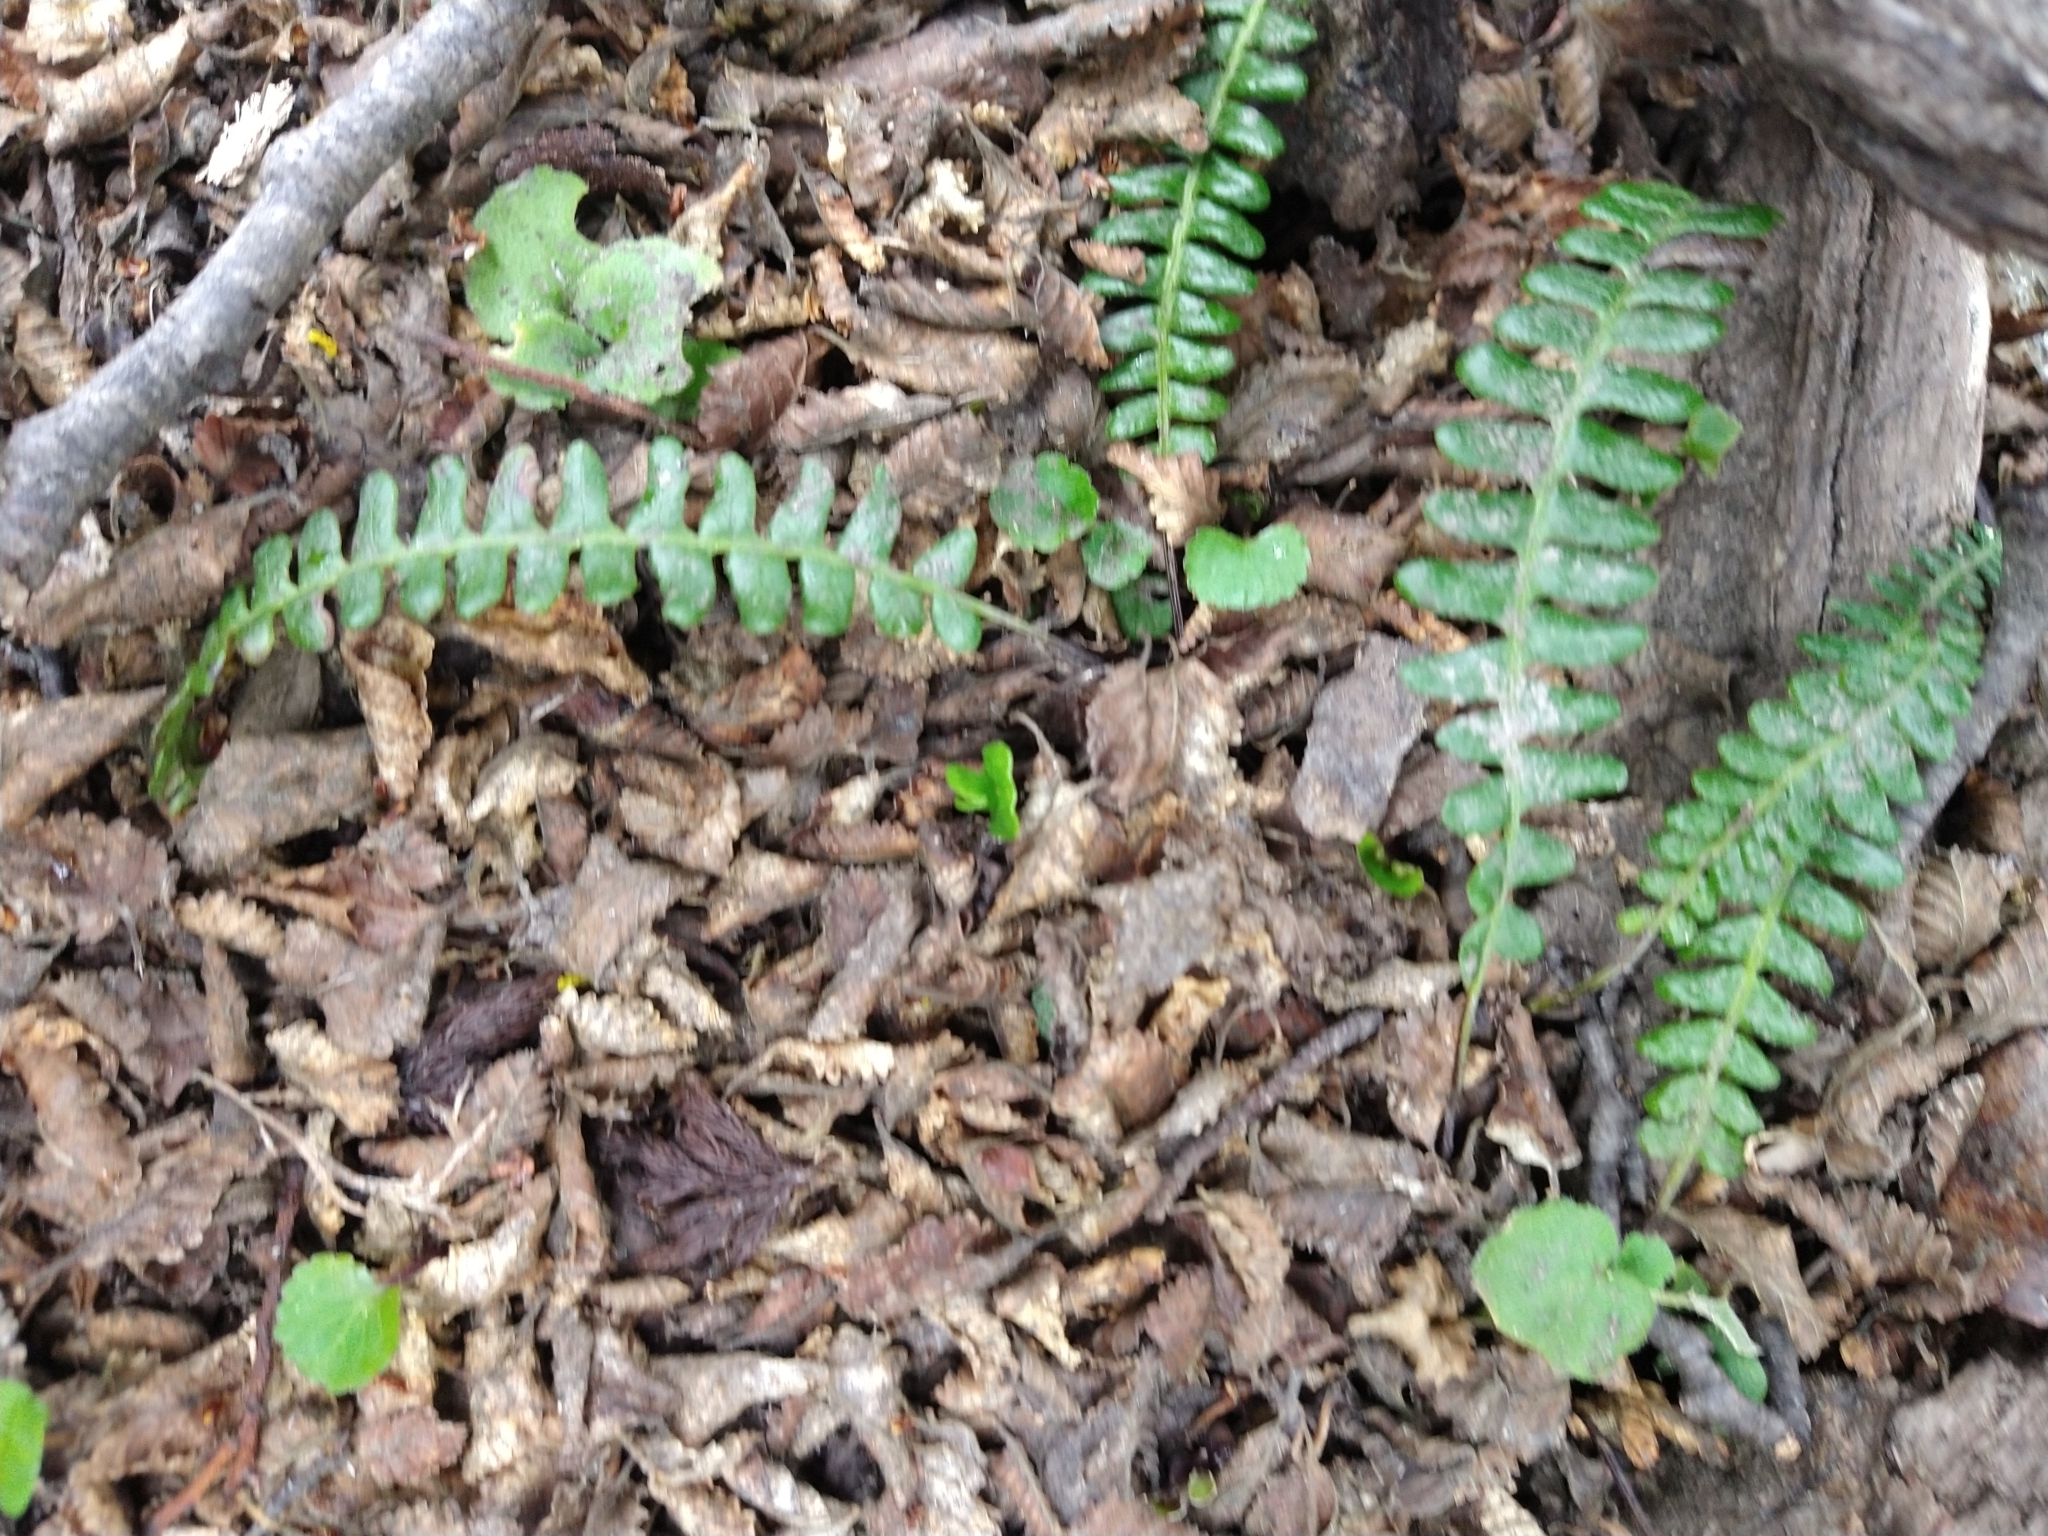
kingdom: Plantae
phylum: Tracheophyta
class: Polypodiopsida
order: Polypodiales
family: Blechnaceae
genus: Austroblechnum
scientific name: Austroblechnum penna-marina
